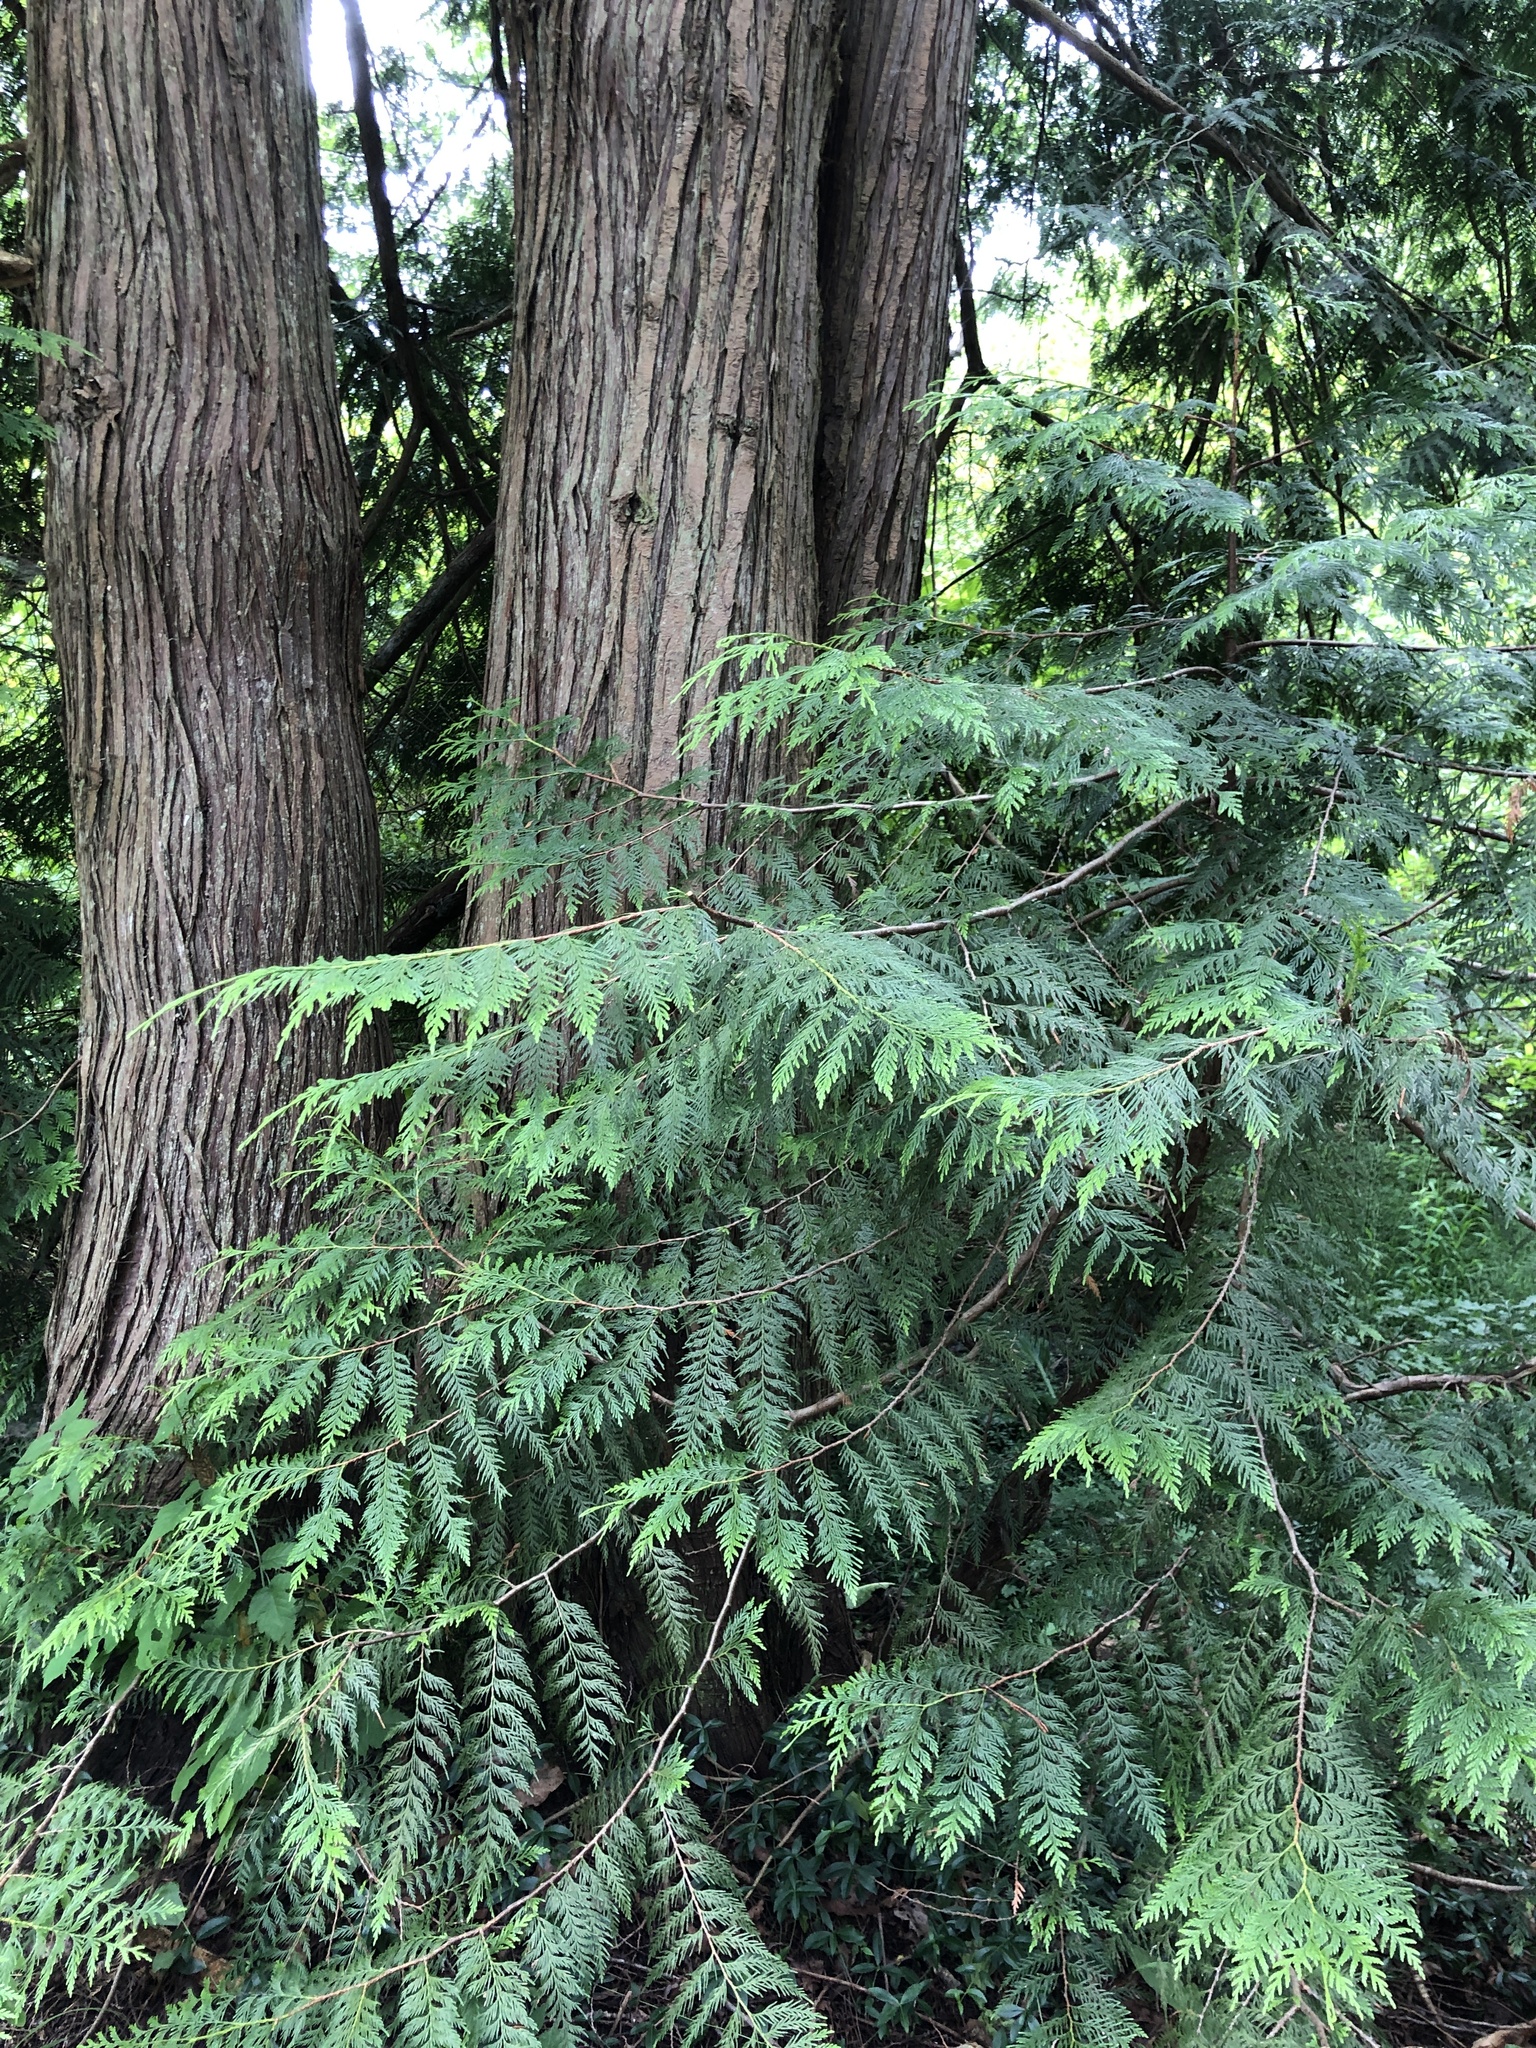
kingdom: Plantae
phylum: Tracheophyta
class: Pinopsida
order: Pinales
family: Cupressaceae
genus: Thuja
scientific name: Thuja plicata
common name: Western red-cedar
